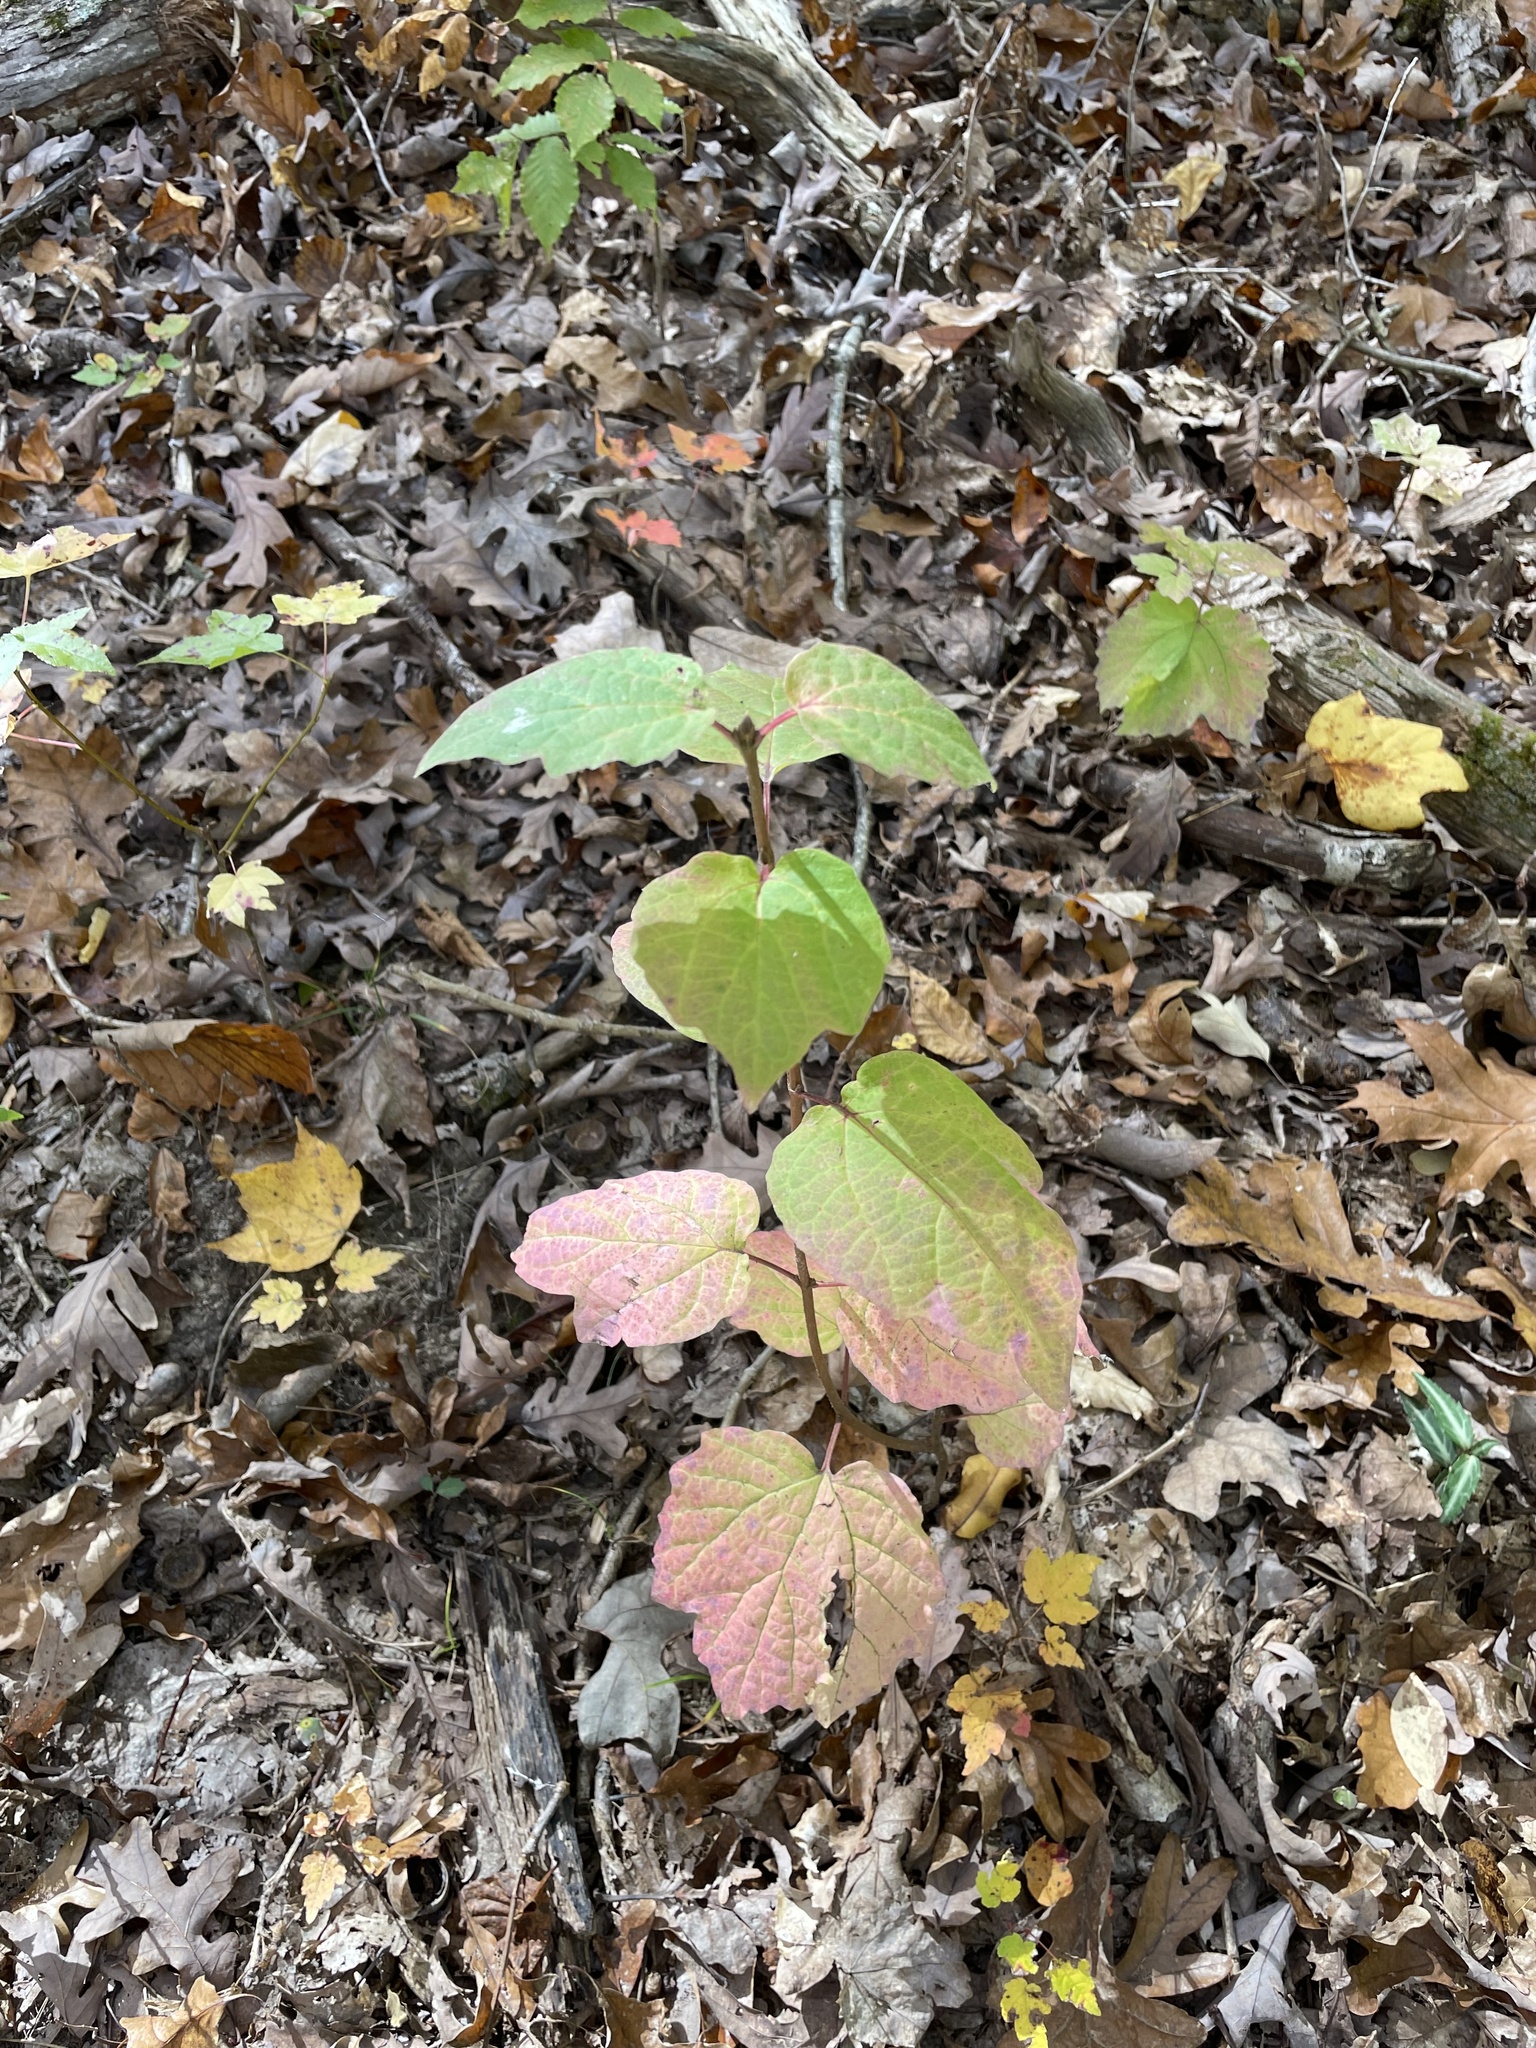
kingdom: Plantae
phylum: Tracheophyta
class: Magnoliopsida
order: Dipsacales
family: Viburnaceae
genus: Viburnum
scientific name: Viburnum acerifolium
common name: Dockmackie
